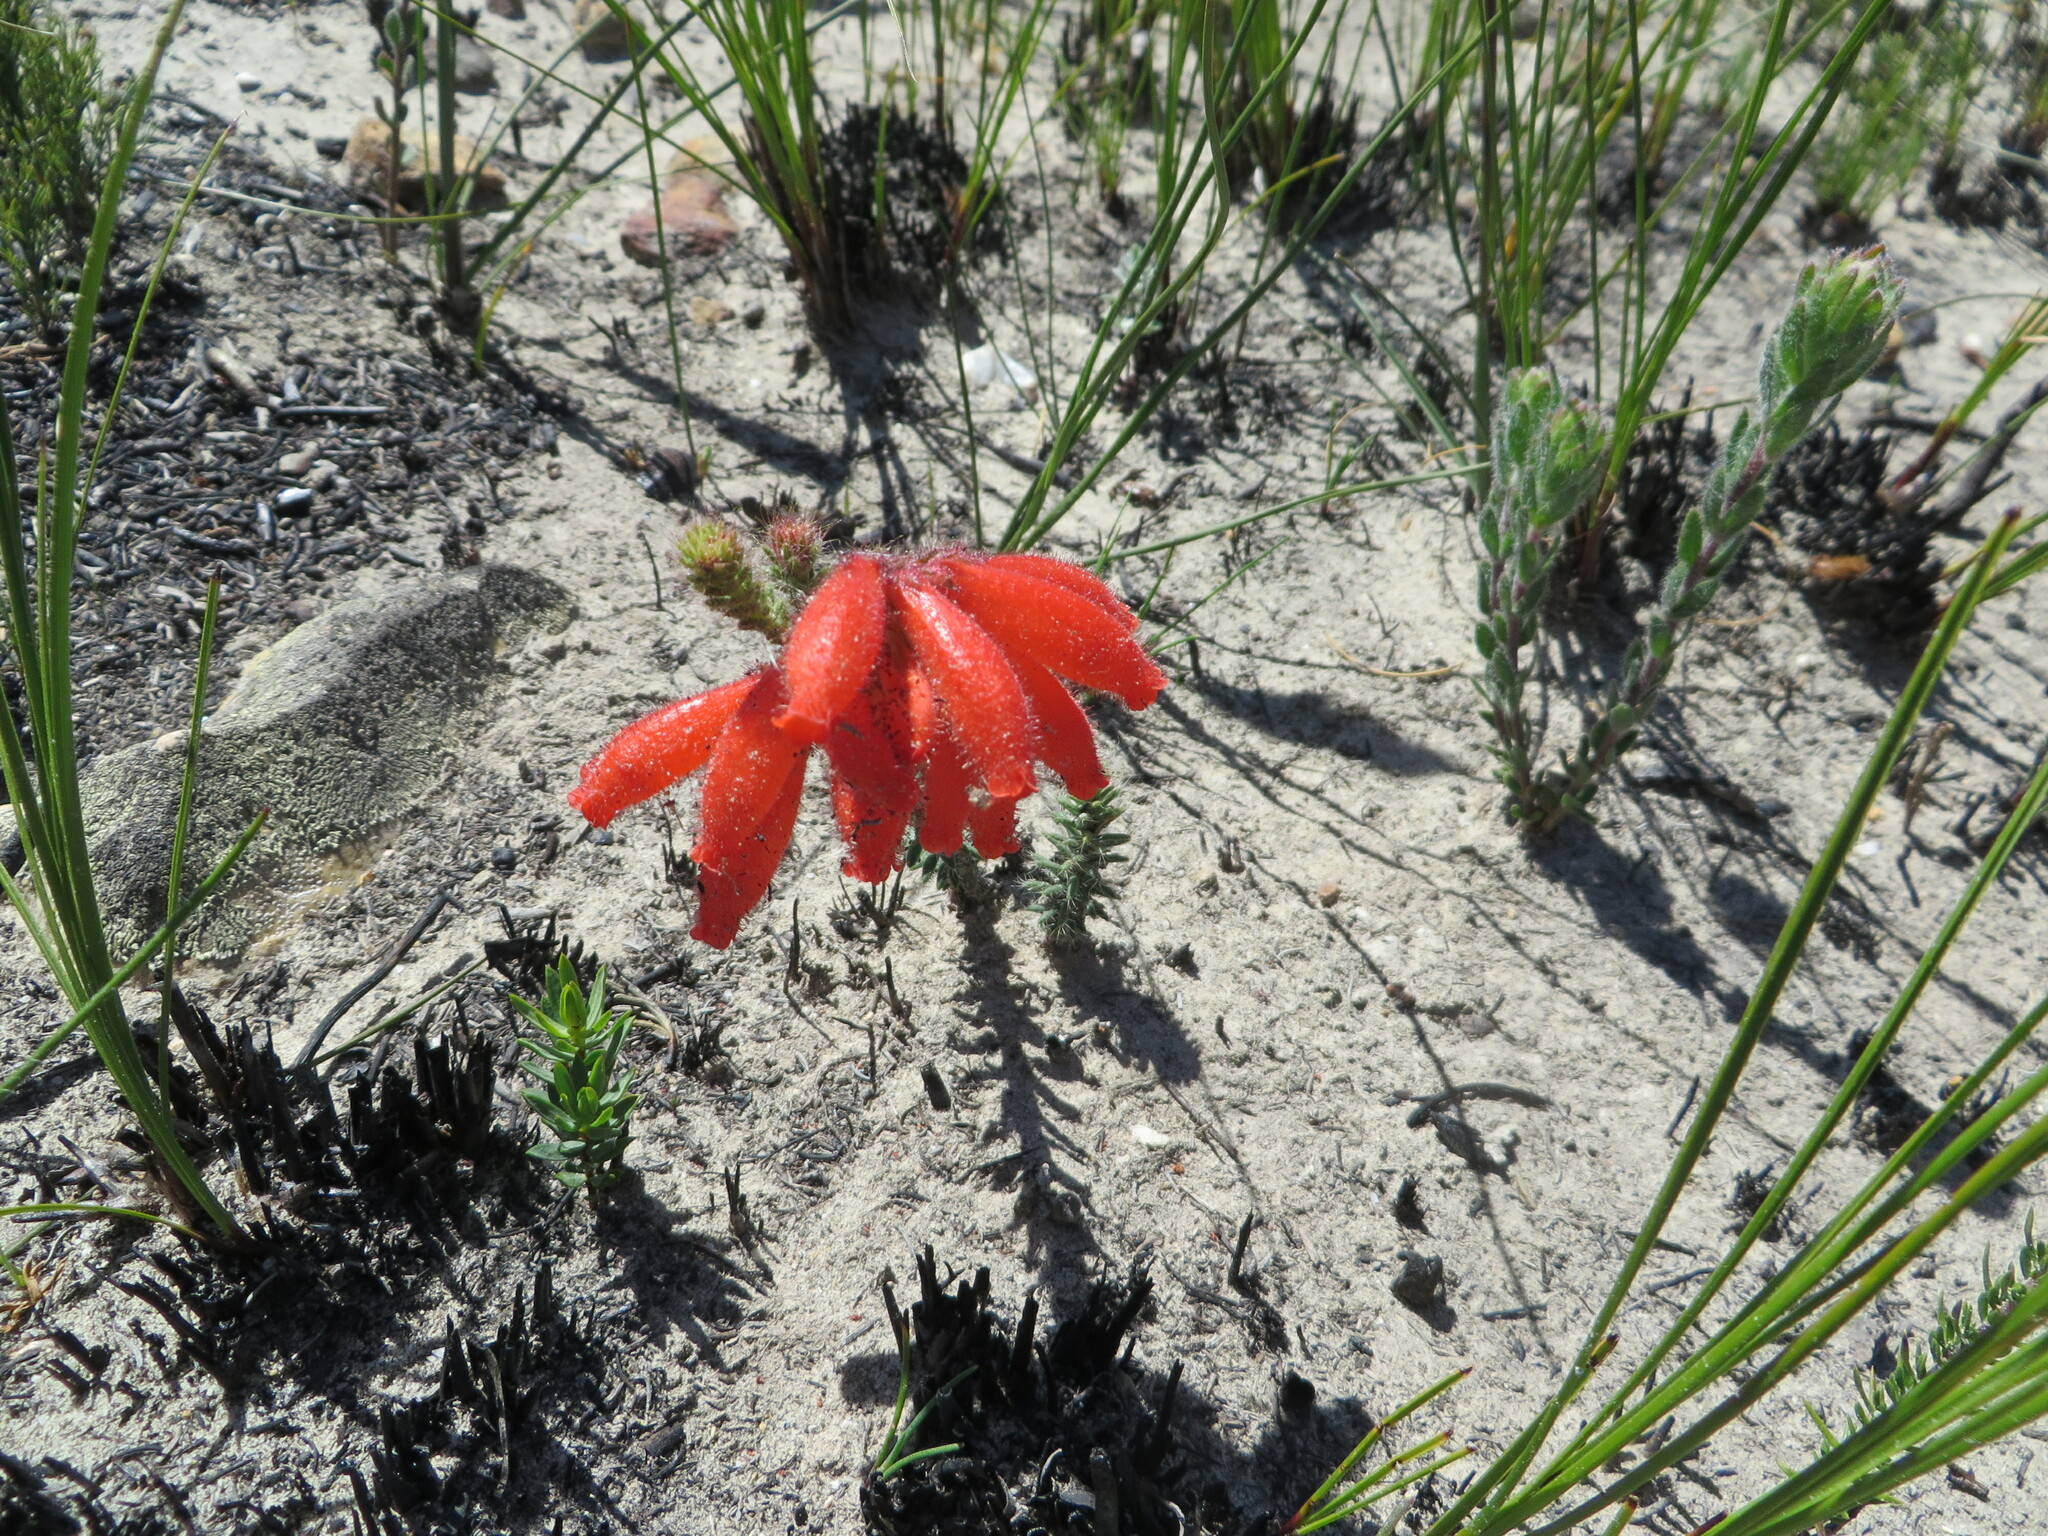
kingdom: Plantae
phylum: Tracheophyta
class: Magnoliopsida
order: Ericales
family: Ericaceae
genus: Erica
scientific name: Erica cerinthoides
